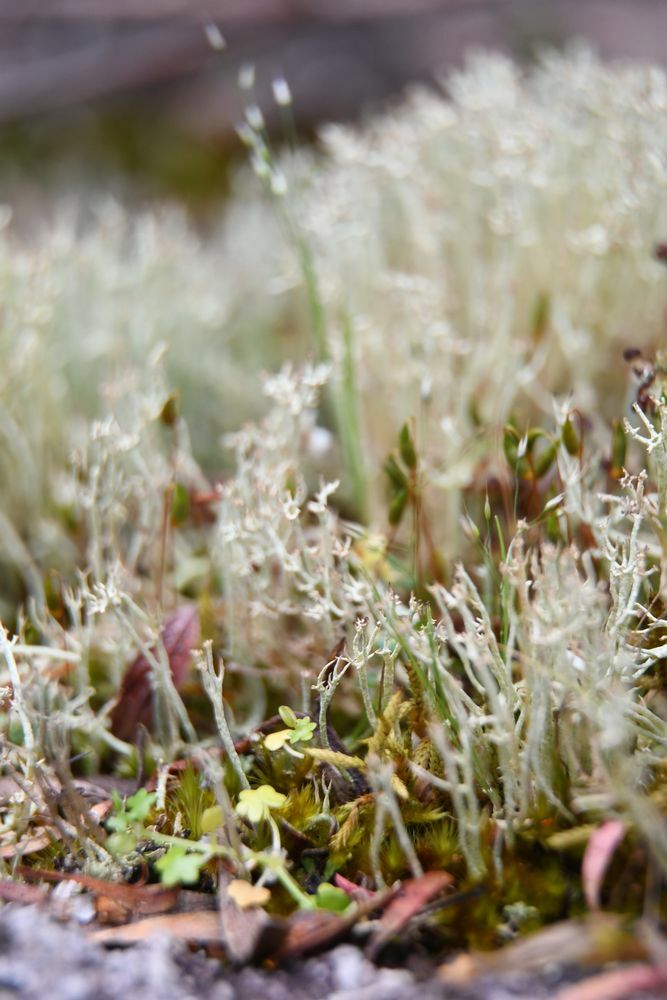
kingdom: Fungi
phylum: Ascomycota
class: Lecanoromycetes
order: Lecanorales
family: Cladoniaceae
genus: Cladonia
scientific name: Cladonia capitellata
